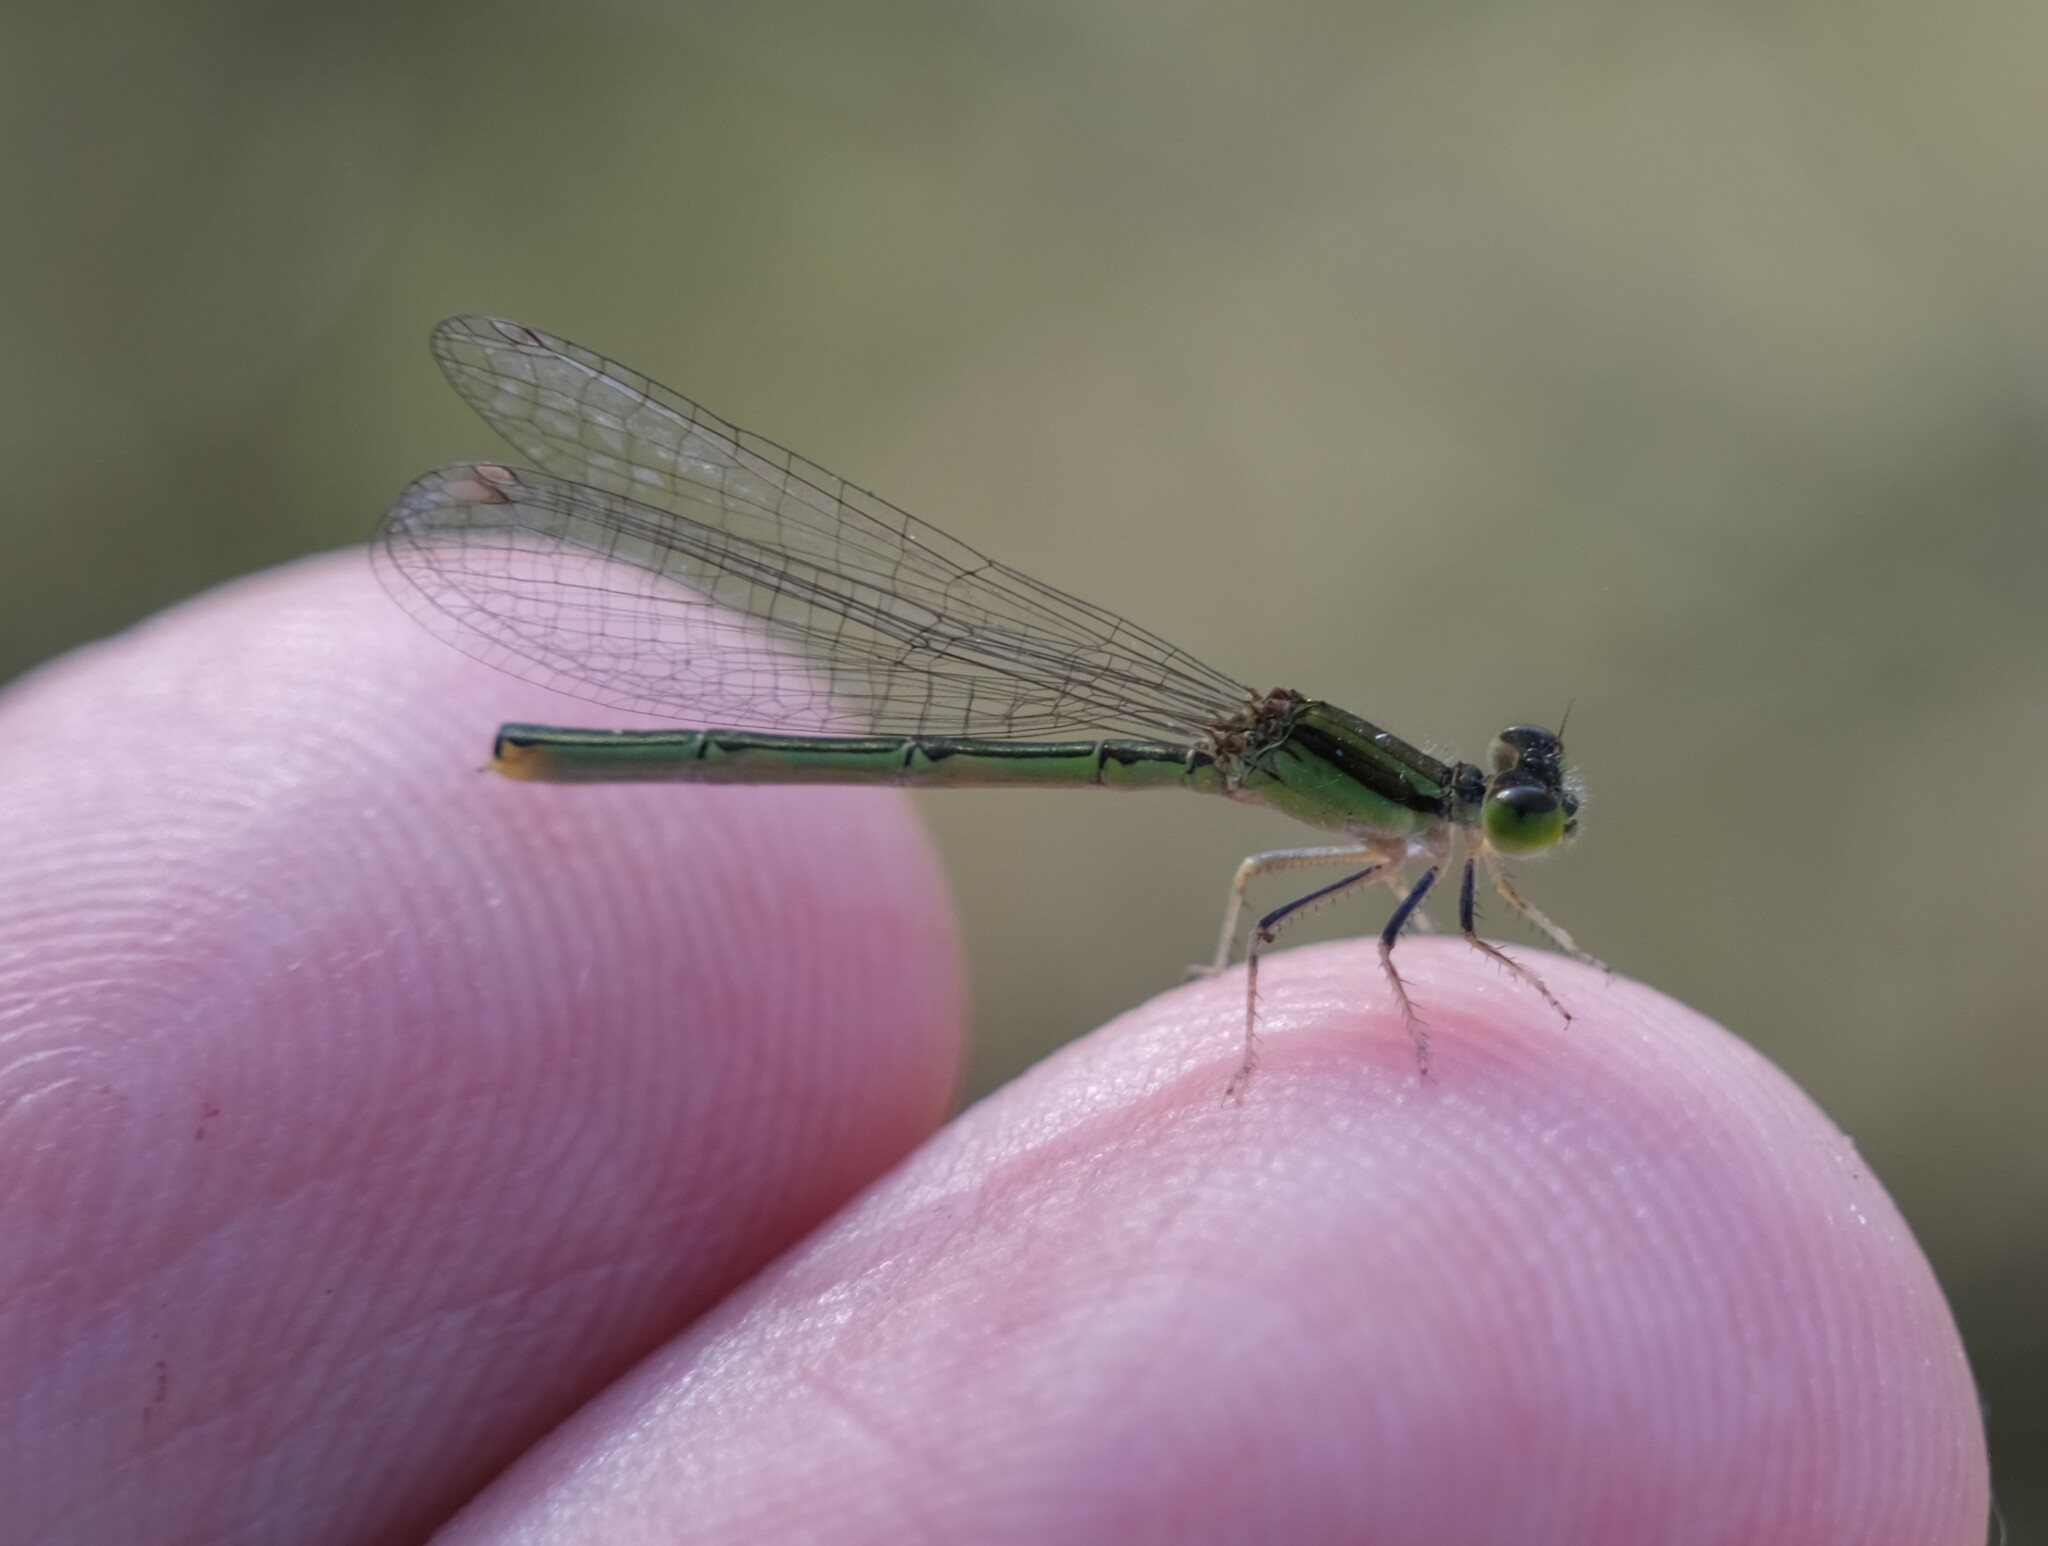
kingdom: Animalia
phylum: Arthropoda
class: Insecta
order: Odonata
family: Coenagrionidae
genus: Ischnura
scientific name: Ischnura aurora
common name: Gossamer damselfly
